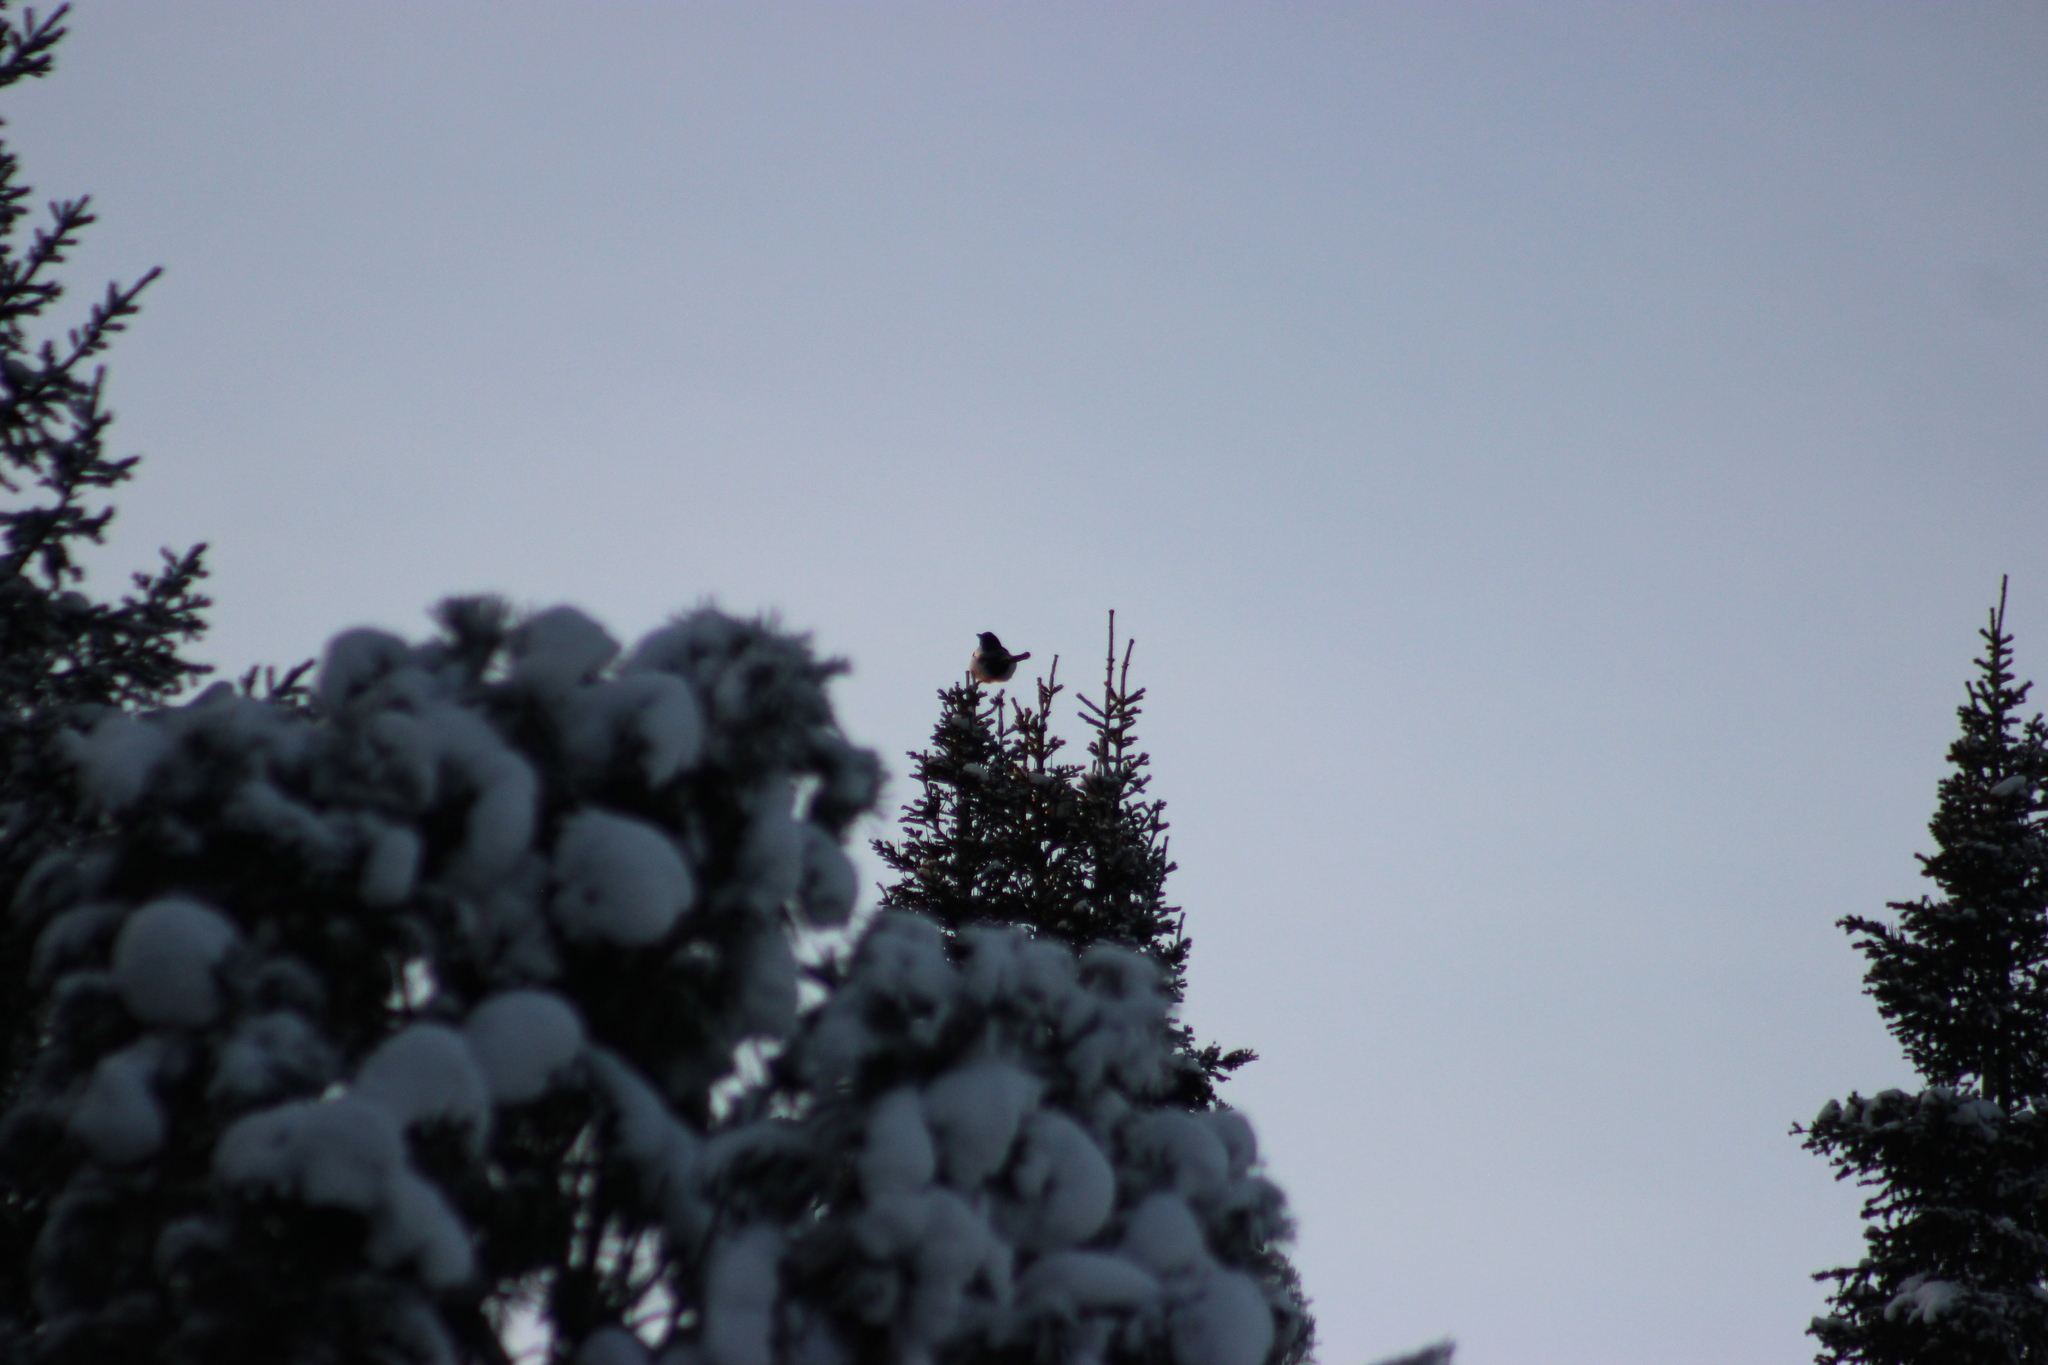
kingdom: Animalia
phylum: Chordata
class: Aves
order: Passeriformes
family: Corvidae
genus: Pica
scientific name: Pica pica
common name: Eurasian magpie
